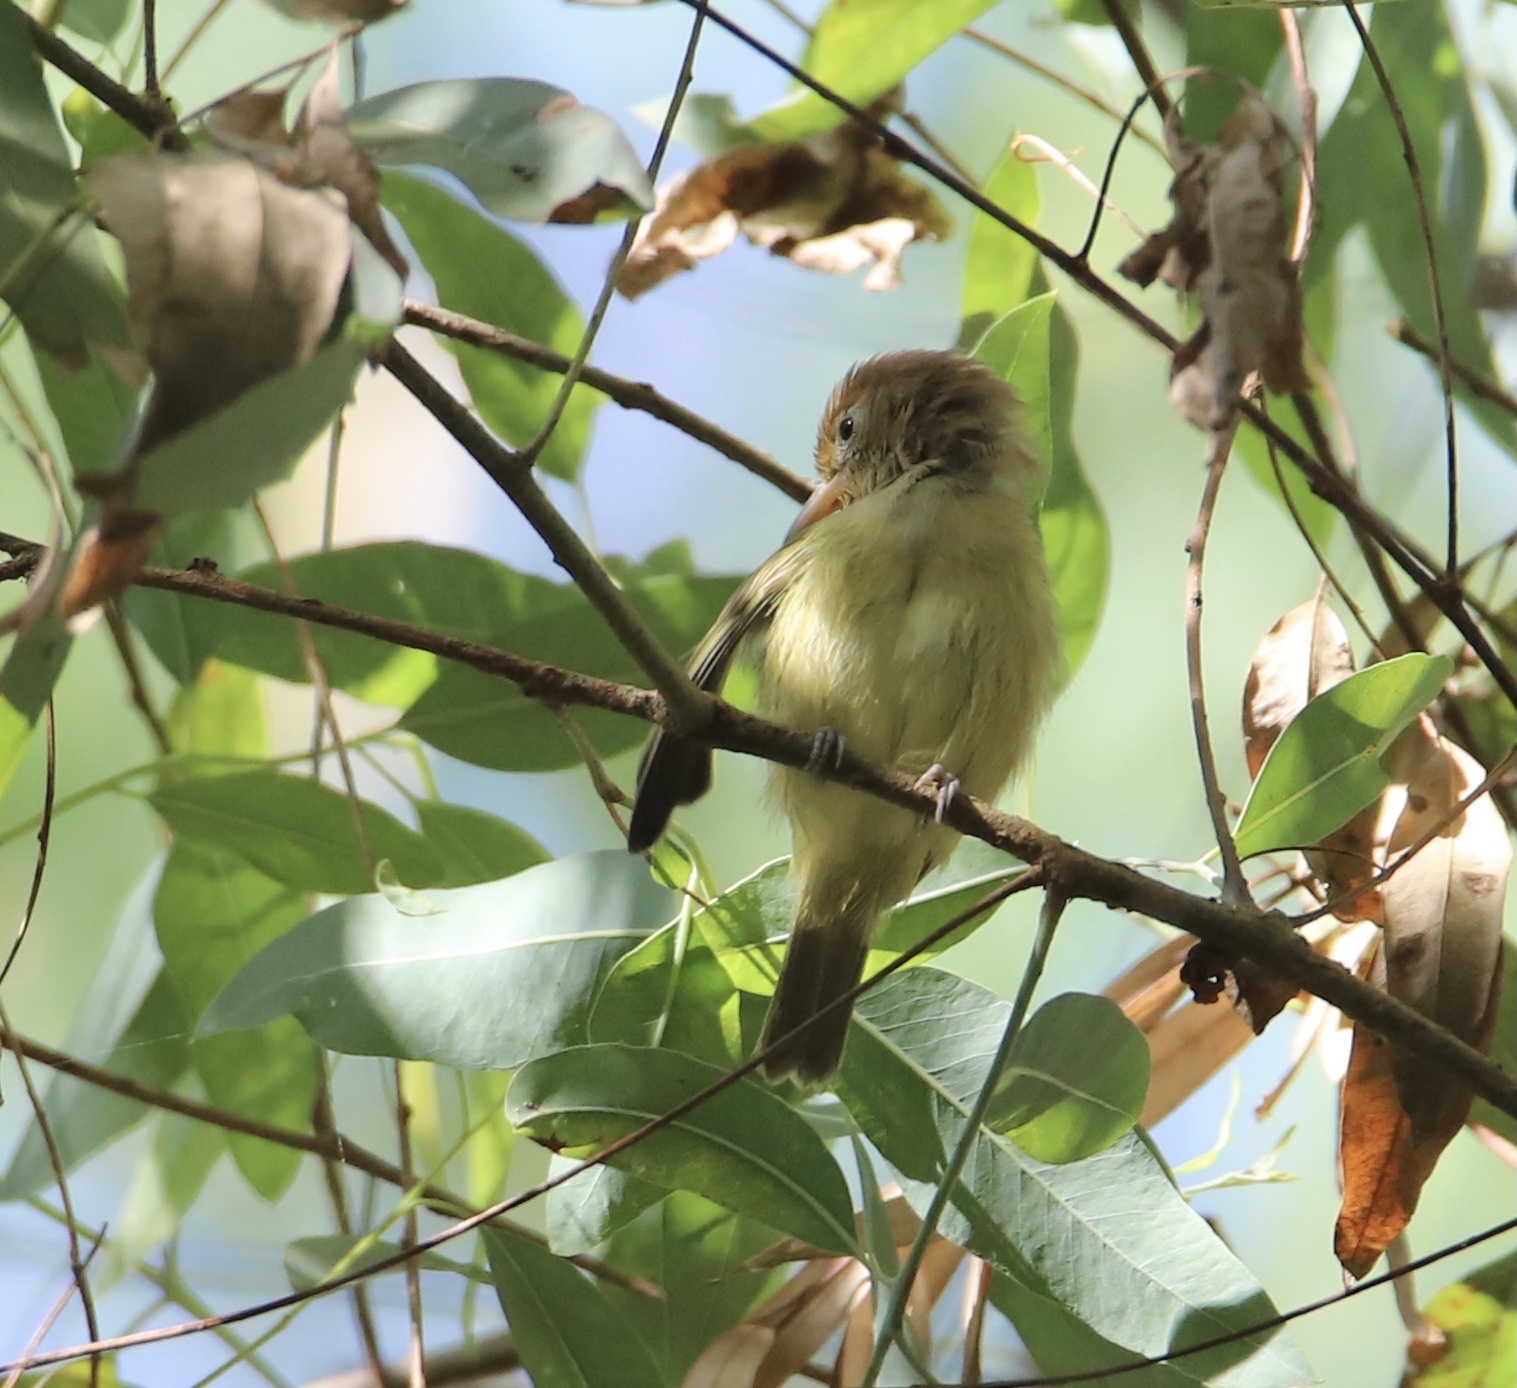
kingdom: Animalia
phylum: Chordata
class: Aves
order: Passeriformes
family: Vireonidae
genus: Hylophilus
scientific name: Hylophilus flavipes
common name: Scrub greenlet
